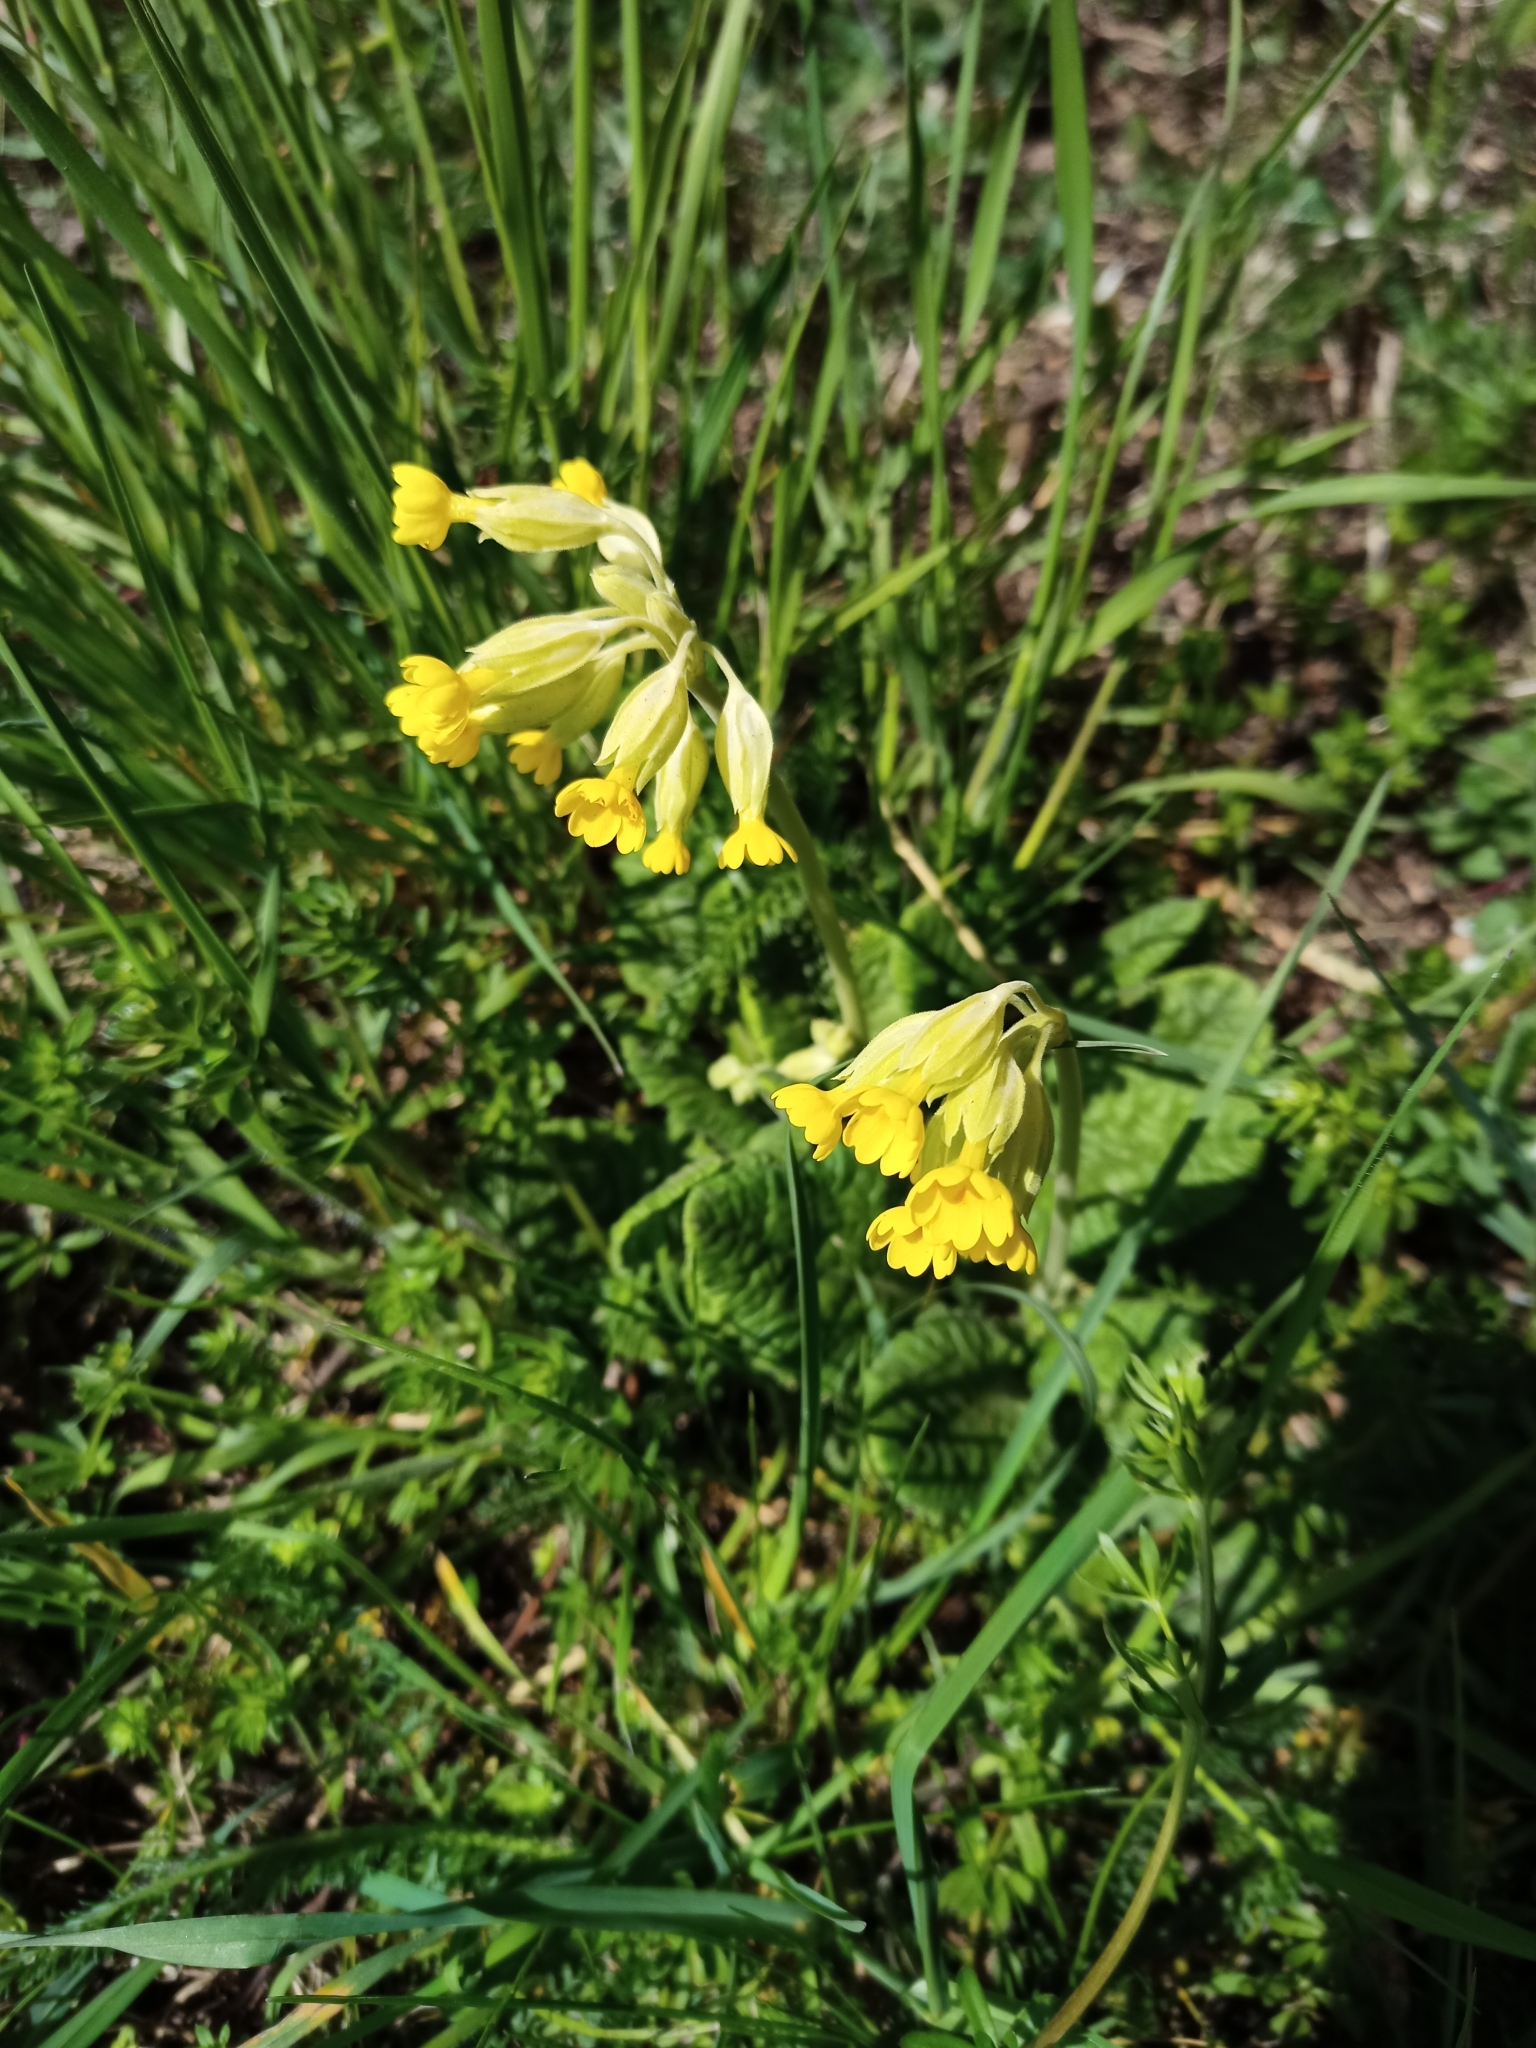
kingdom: Plantae
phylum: Tracheophyta
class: Magnoliopsida
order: Ericales
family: Primulaceae
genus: Primula
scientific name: Primula veris
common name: Cowslip
